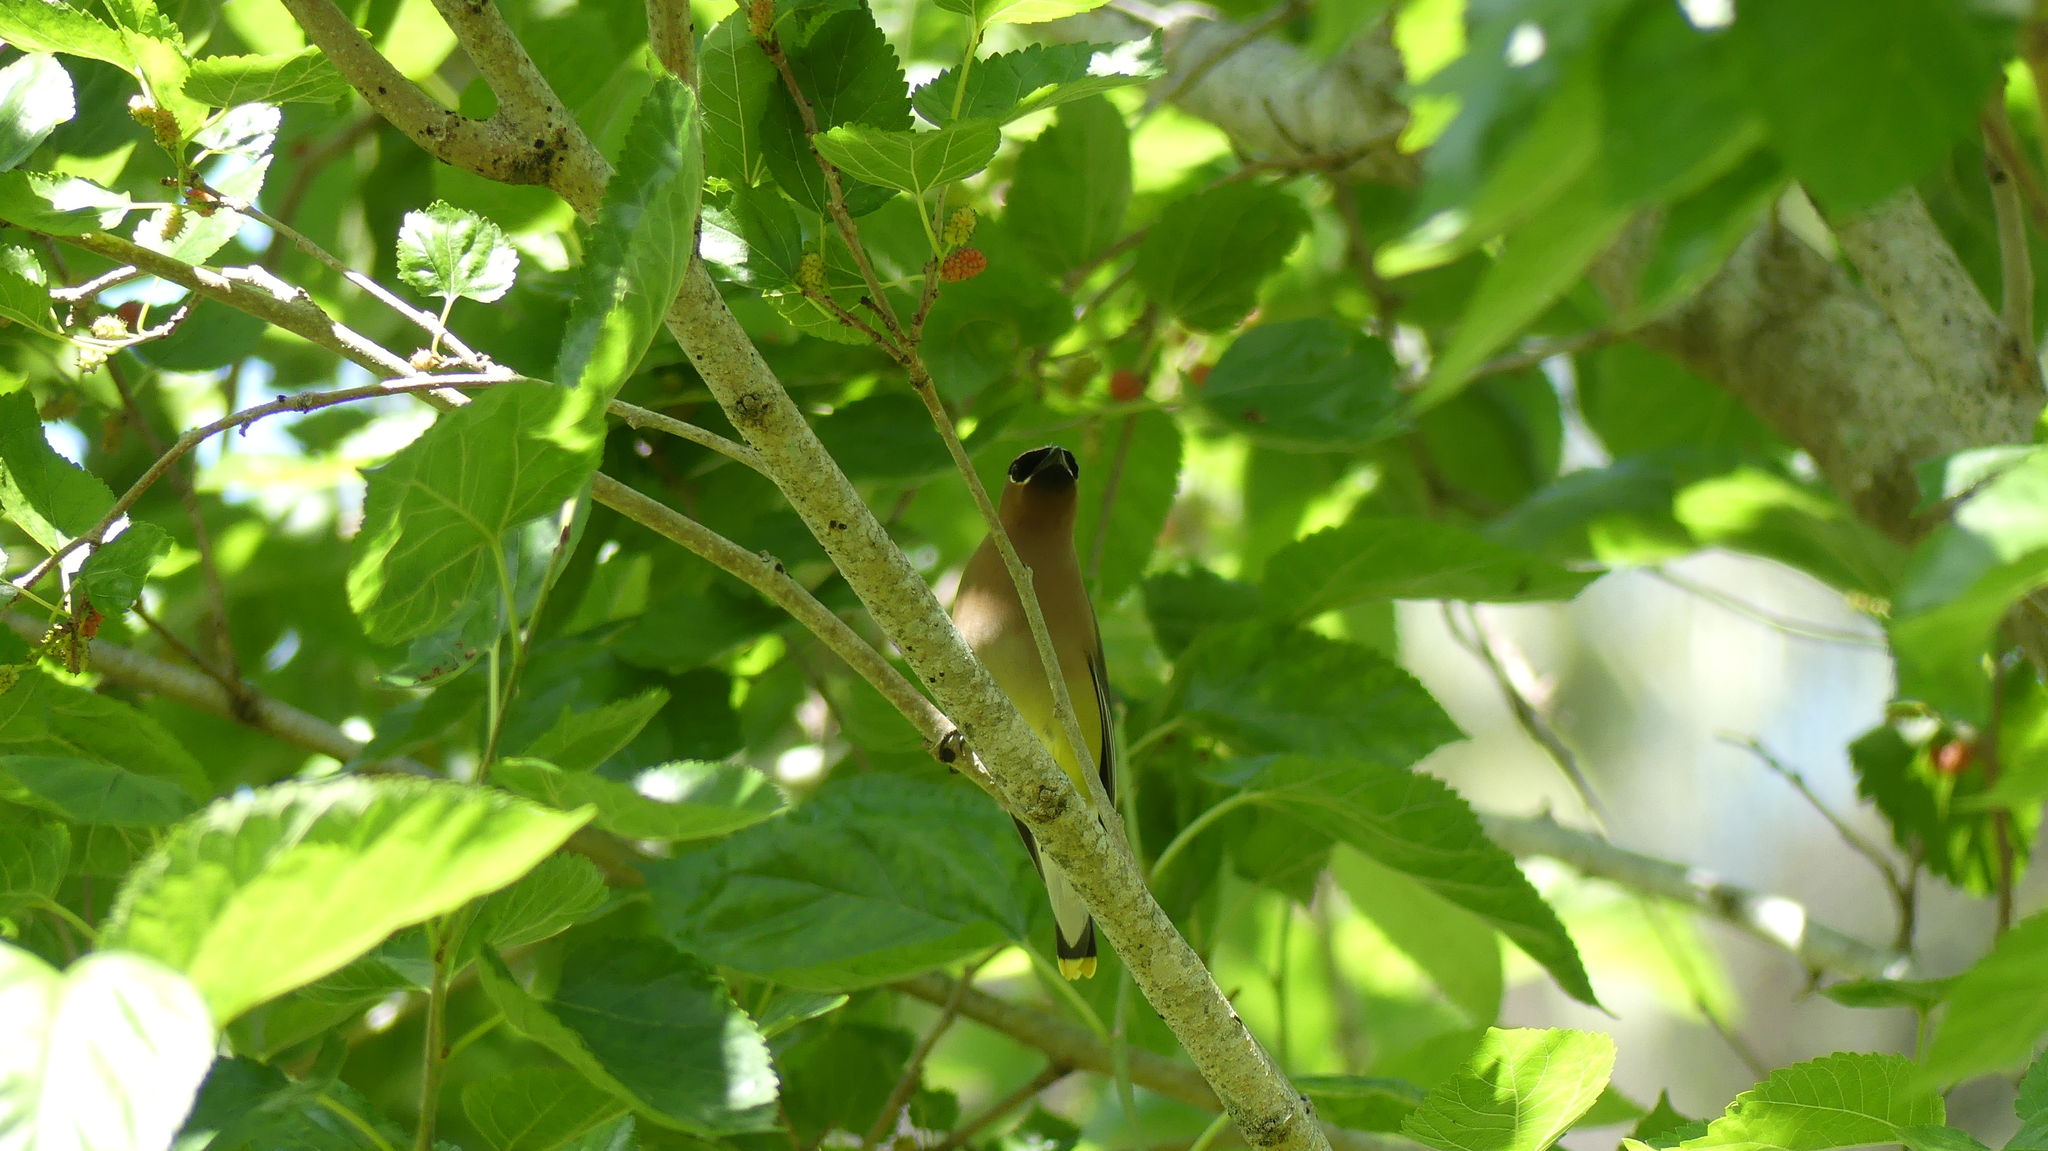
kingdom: Animalia
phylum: Chordata
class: Aves
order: Passeriformes
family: Bombycillidae
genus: Bombycilla
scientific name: Bombycilla cedrorum
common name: Cedar waxwing
